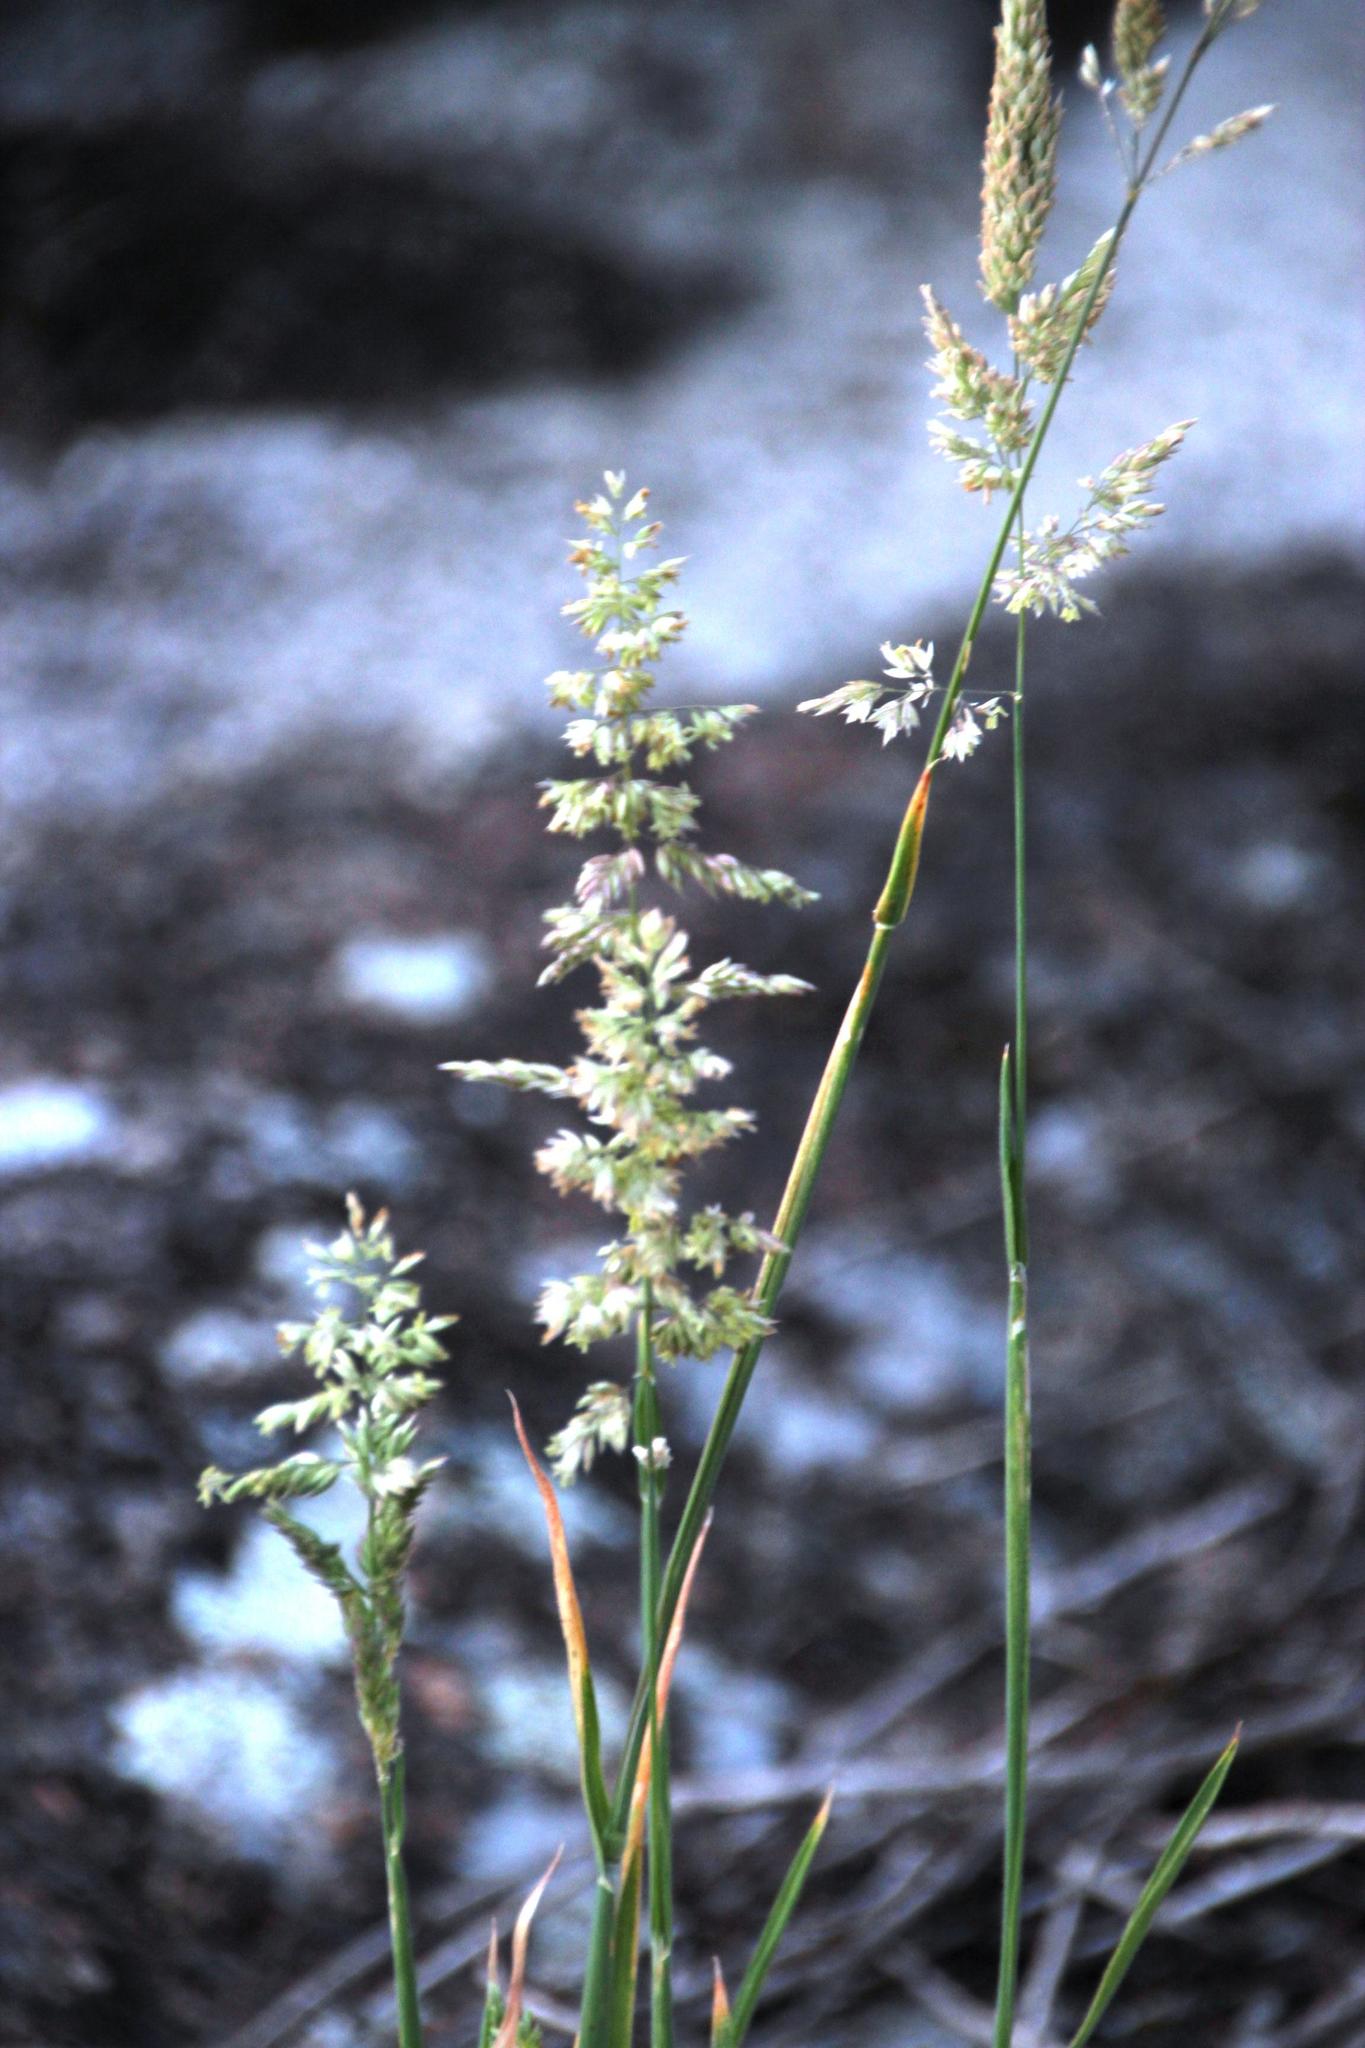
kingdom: Plantae
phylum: Tracheophyta
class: Liliopsida
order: Poales
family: Poaceae
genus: Holcus
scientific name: Holcus lanatus
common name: Yorkshire-fog
